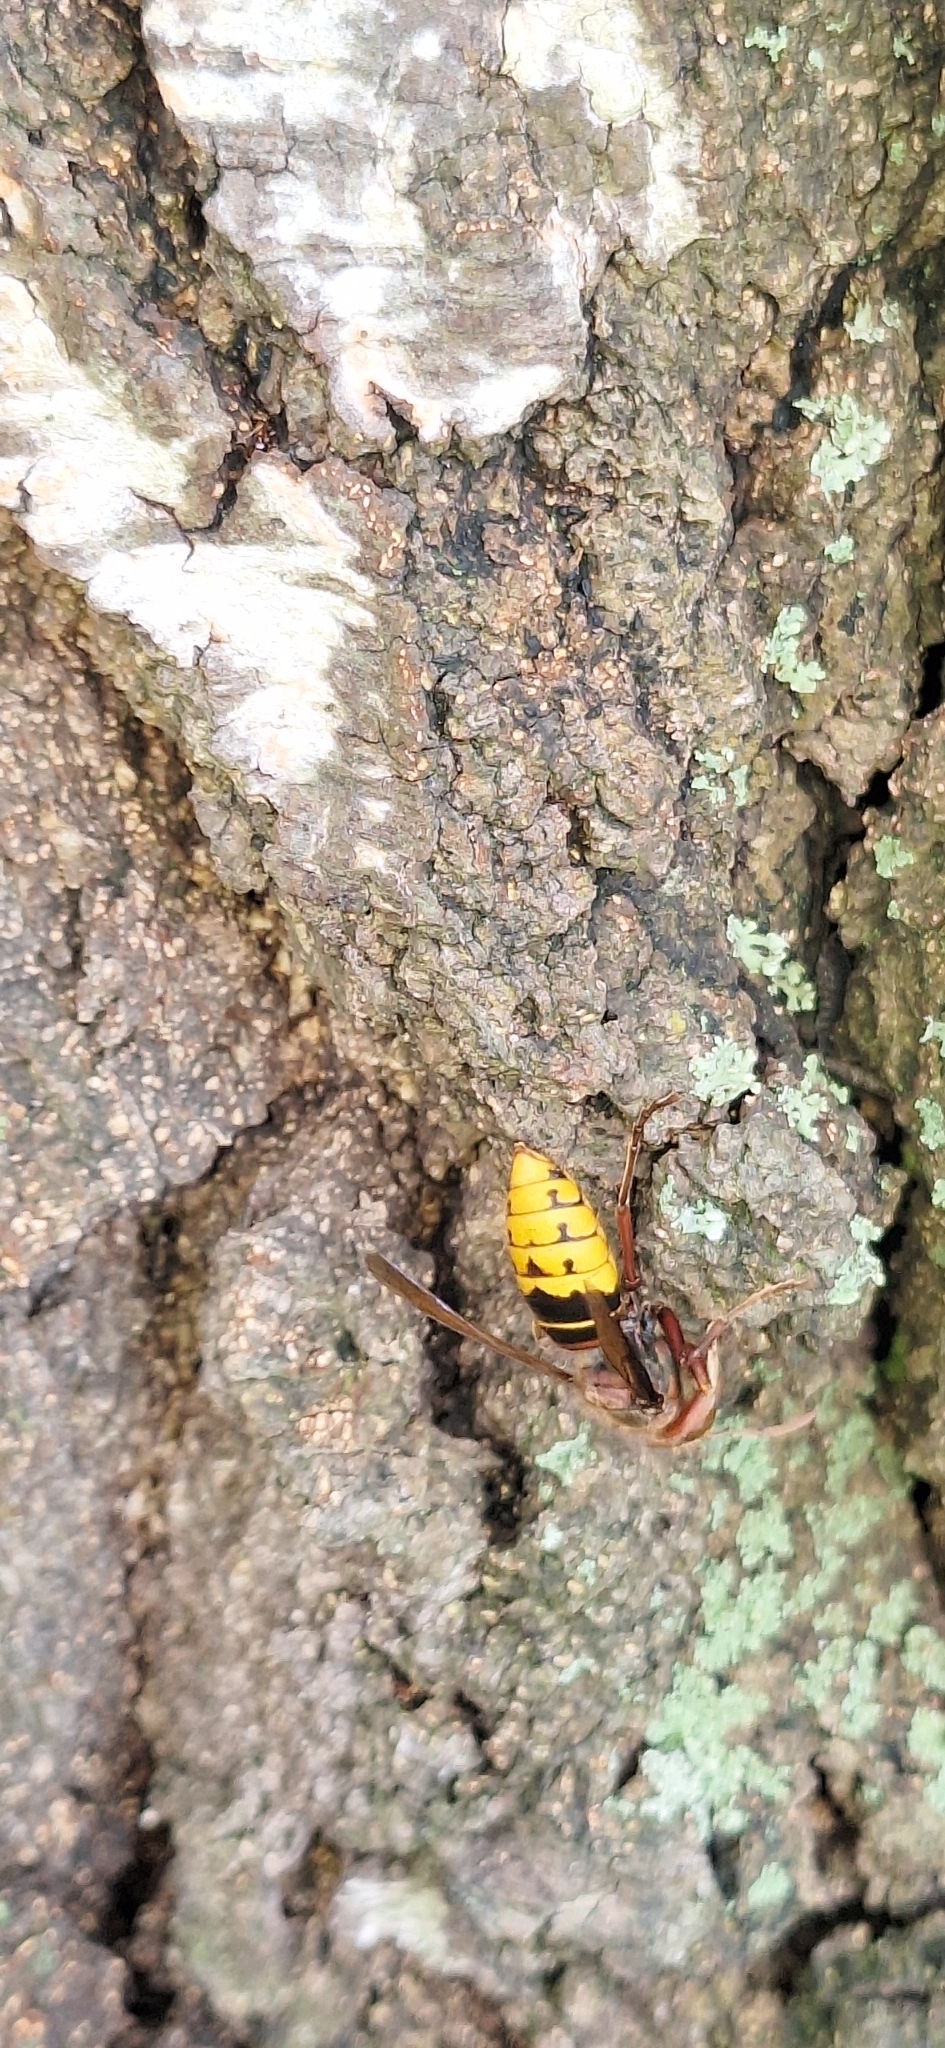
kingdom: Animalia
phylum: Arthropoda
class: Insecta
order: Hymenoptera
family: Vespidae
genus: Vespa
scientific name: Vespa crabro
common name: Hornet
